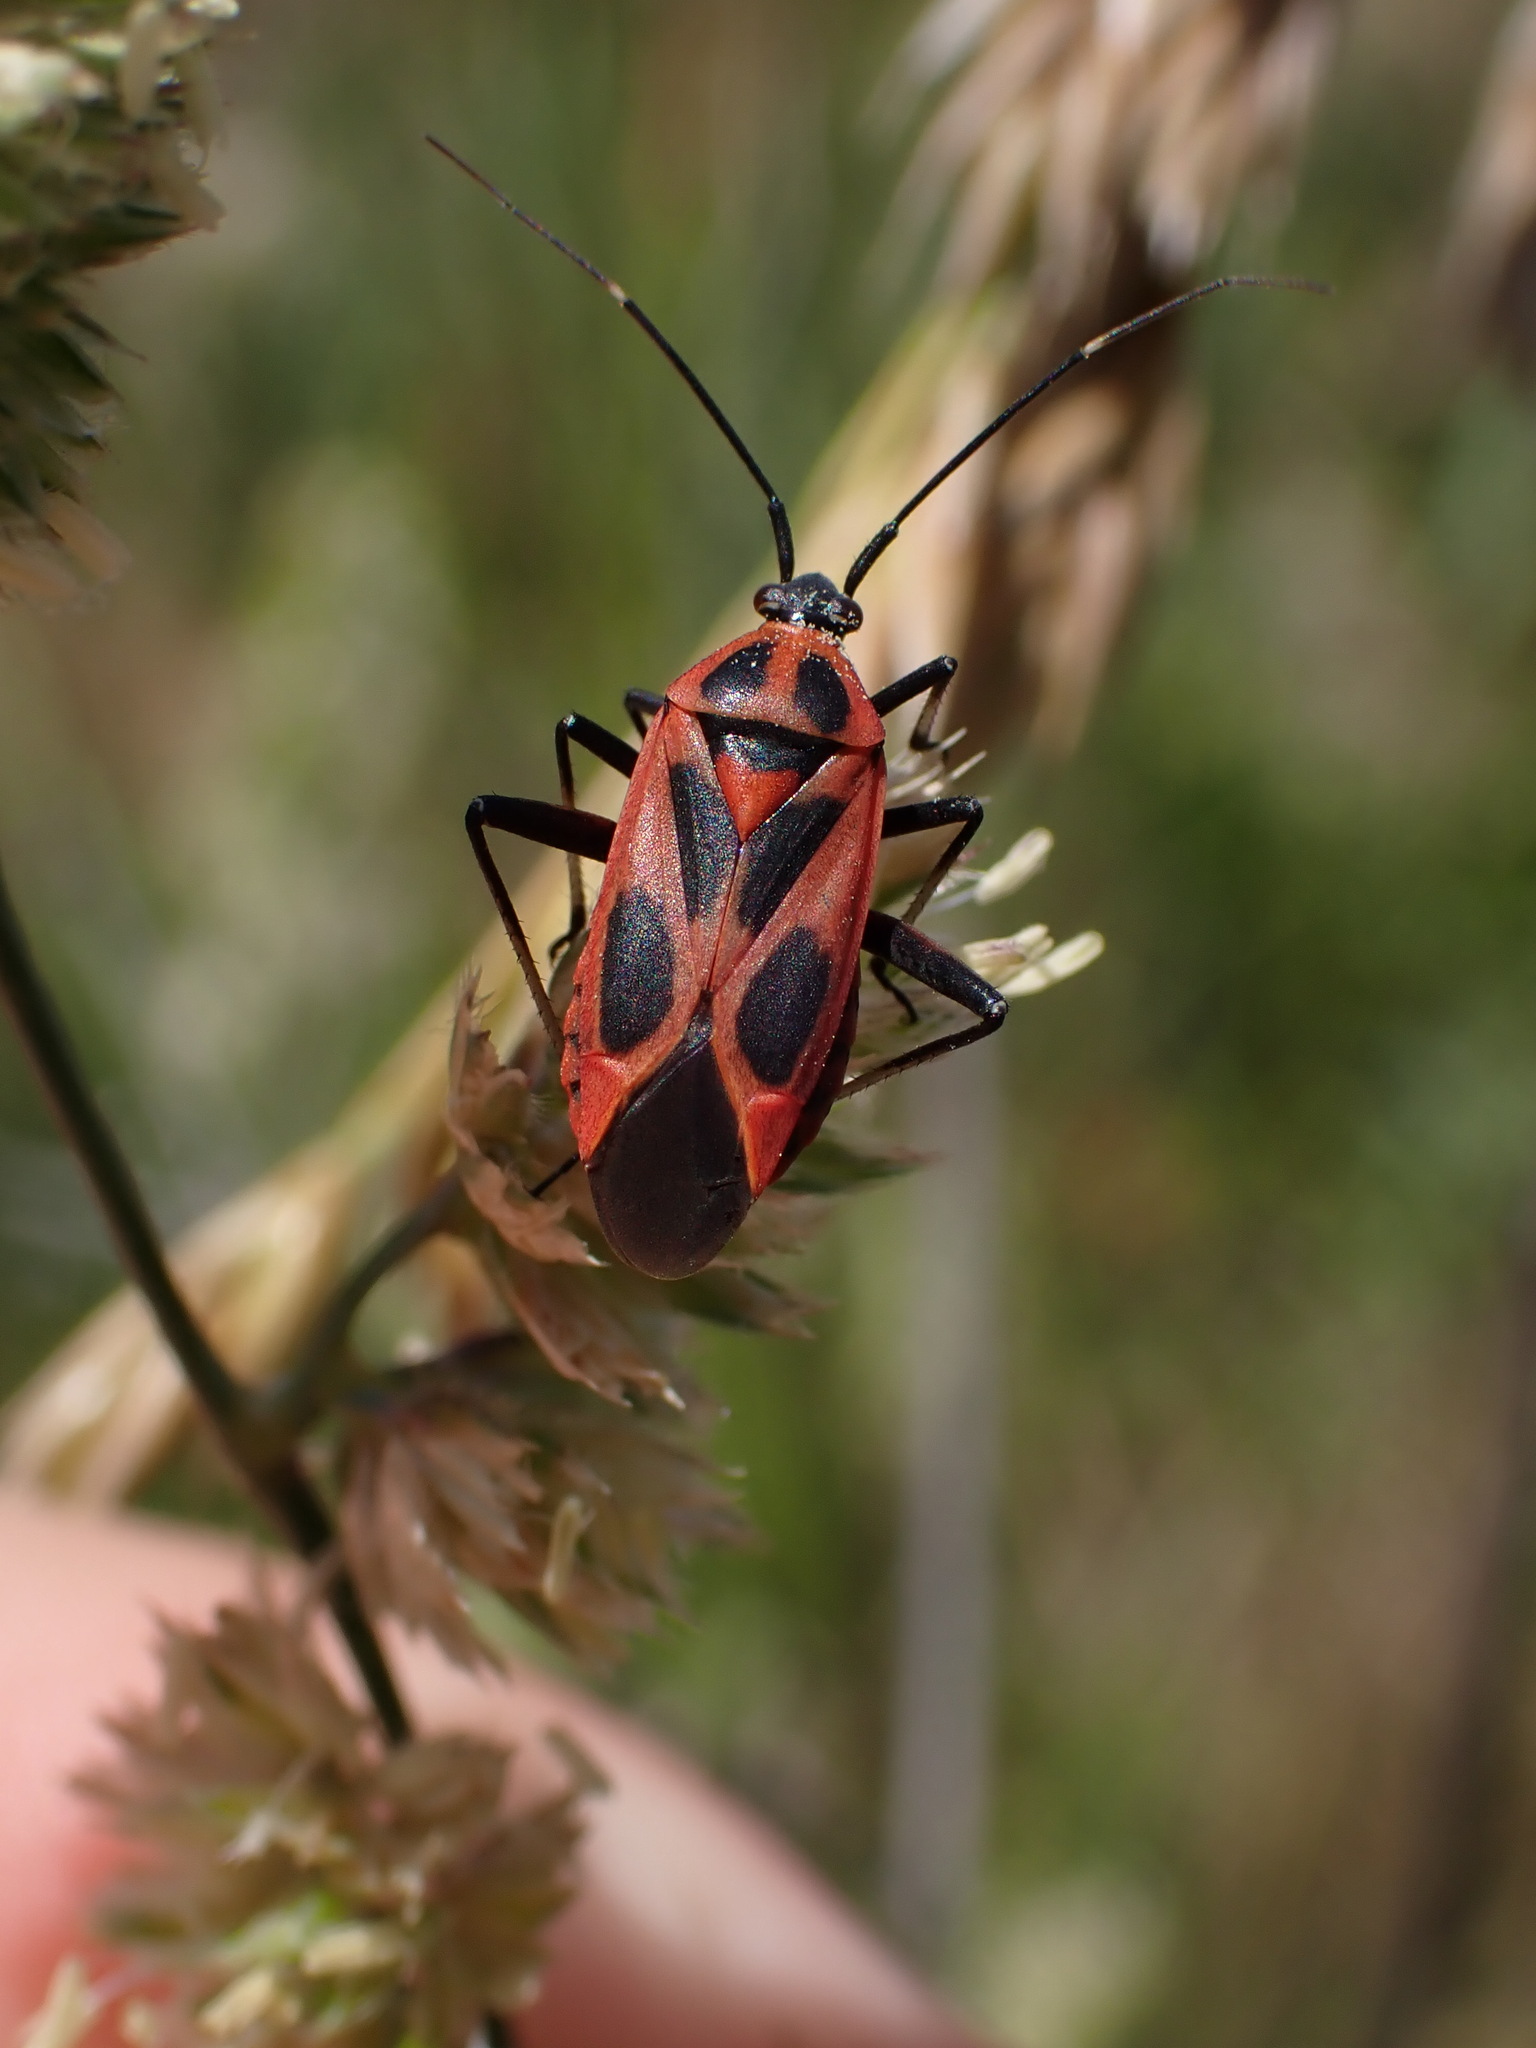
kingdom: Animalia
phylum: Arthropoda
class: Insecta
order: Hemiptera
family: Miridae
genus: Calocoris
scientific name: Calocoris nemoralis
